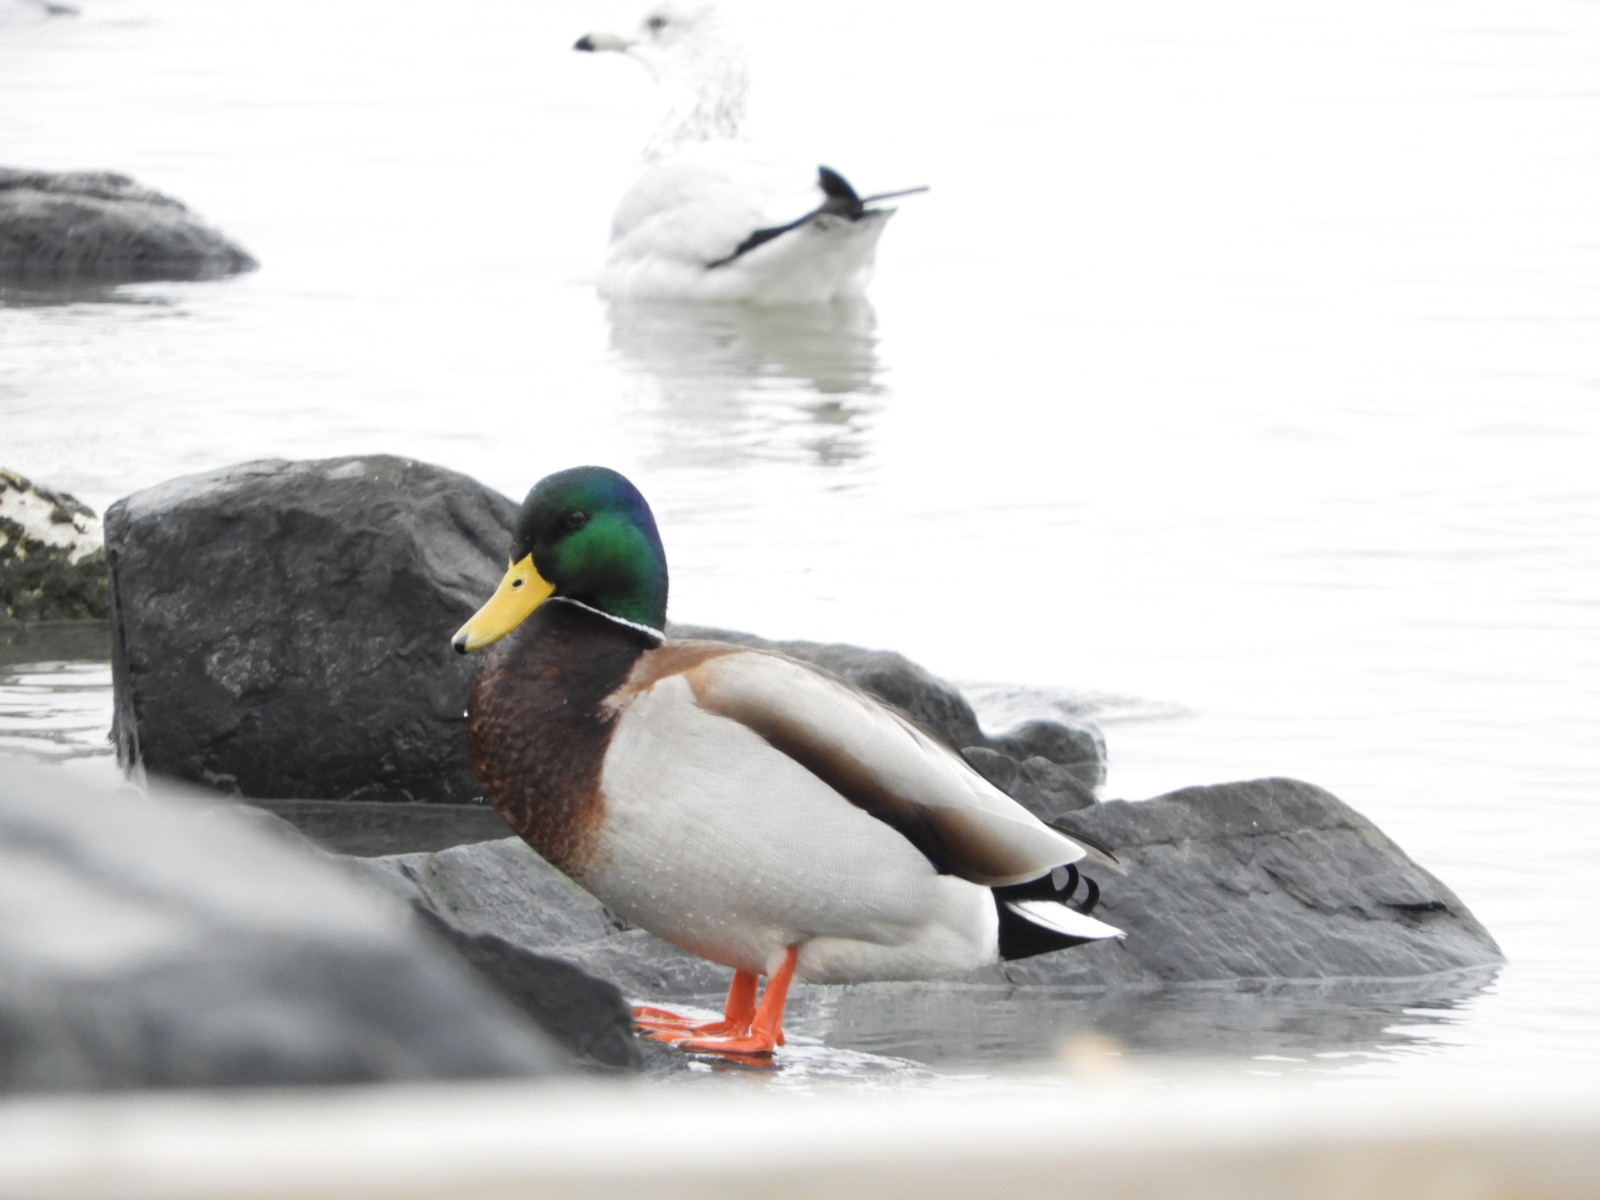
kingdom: Animalia
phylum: Chordata
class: Aves
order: Anseriformes
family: Anatidae
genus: Anas
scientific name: Anas platyrhynchos
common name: Mallard
